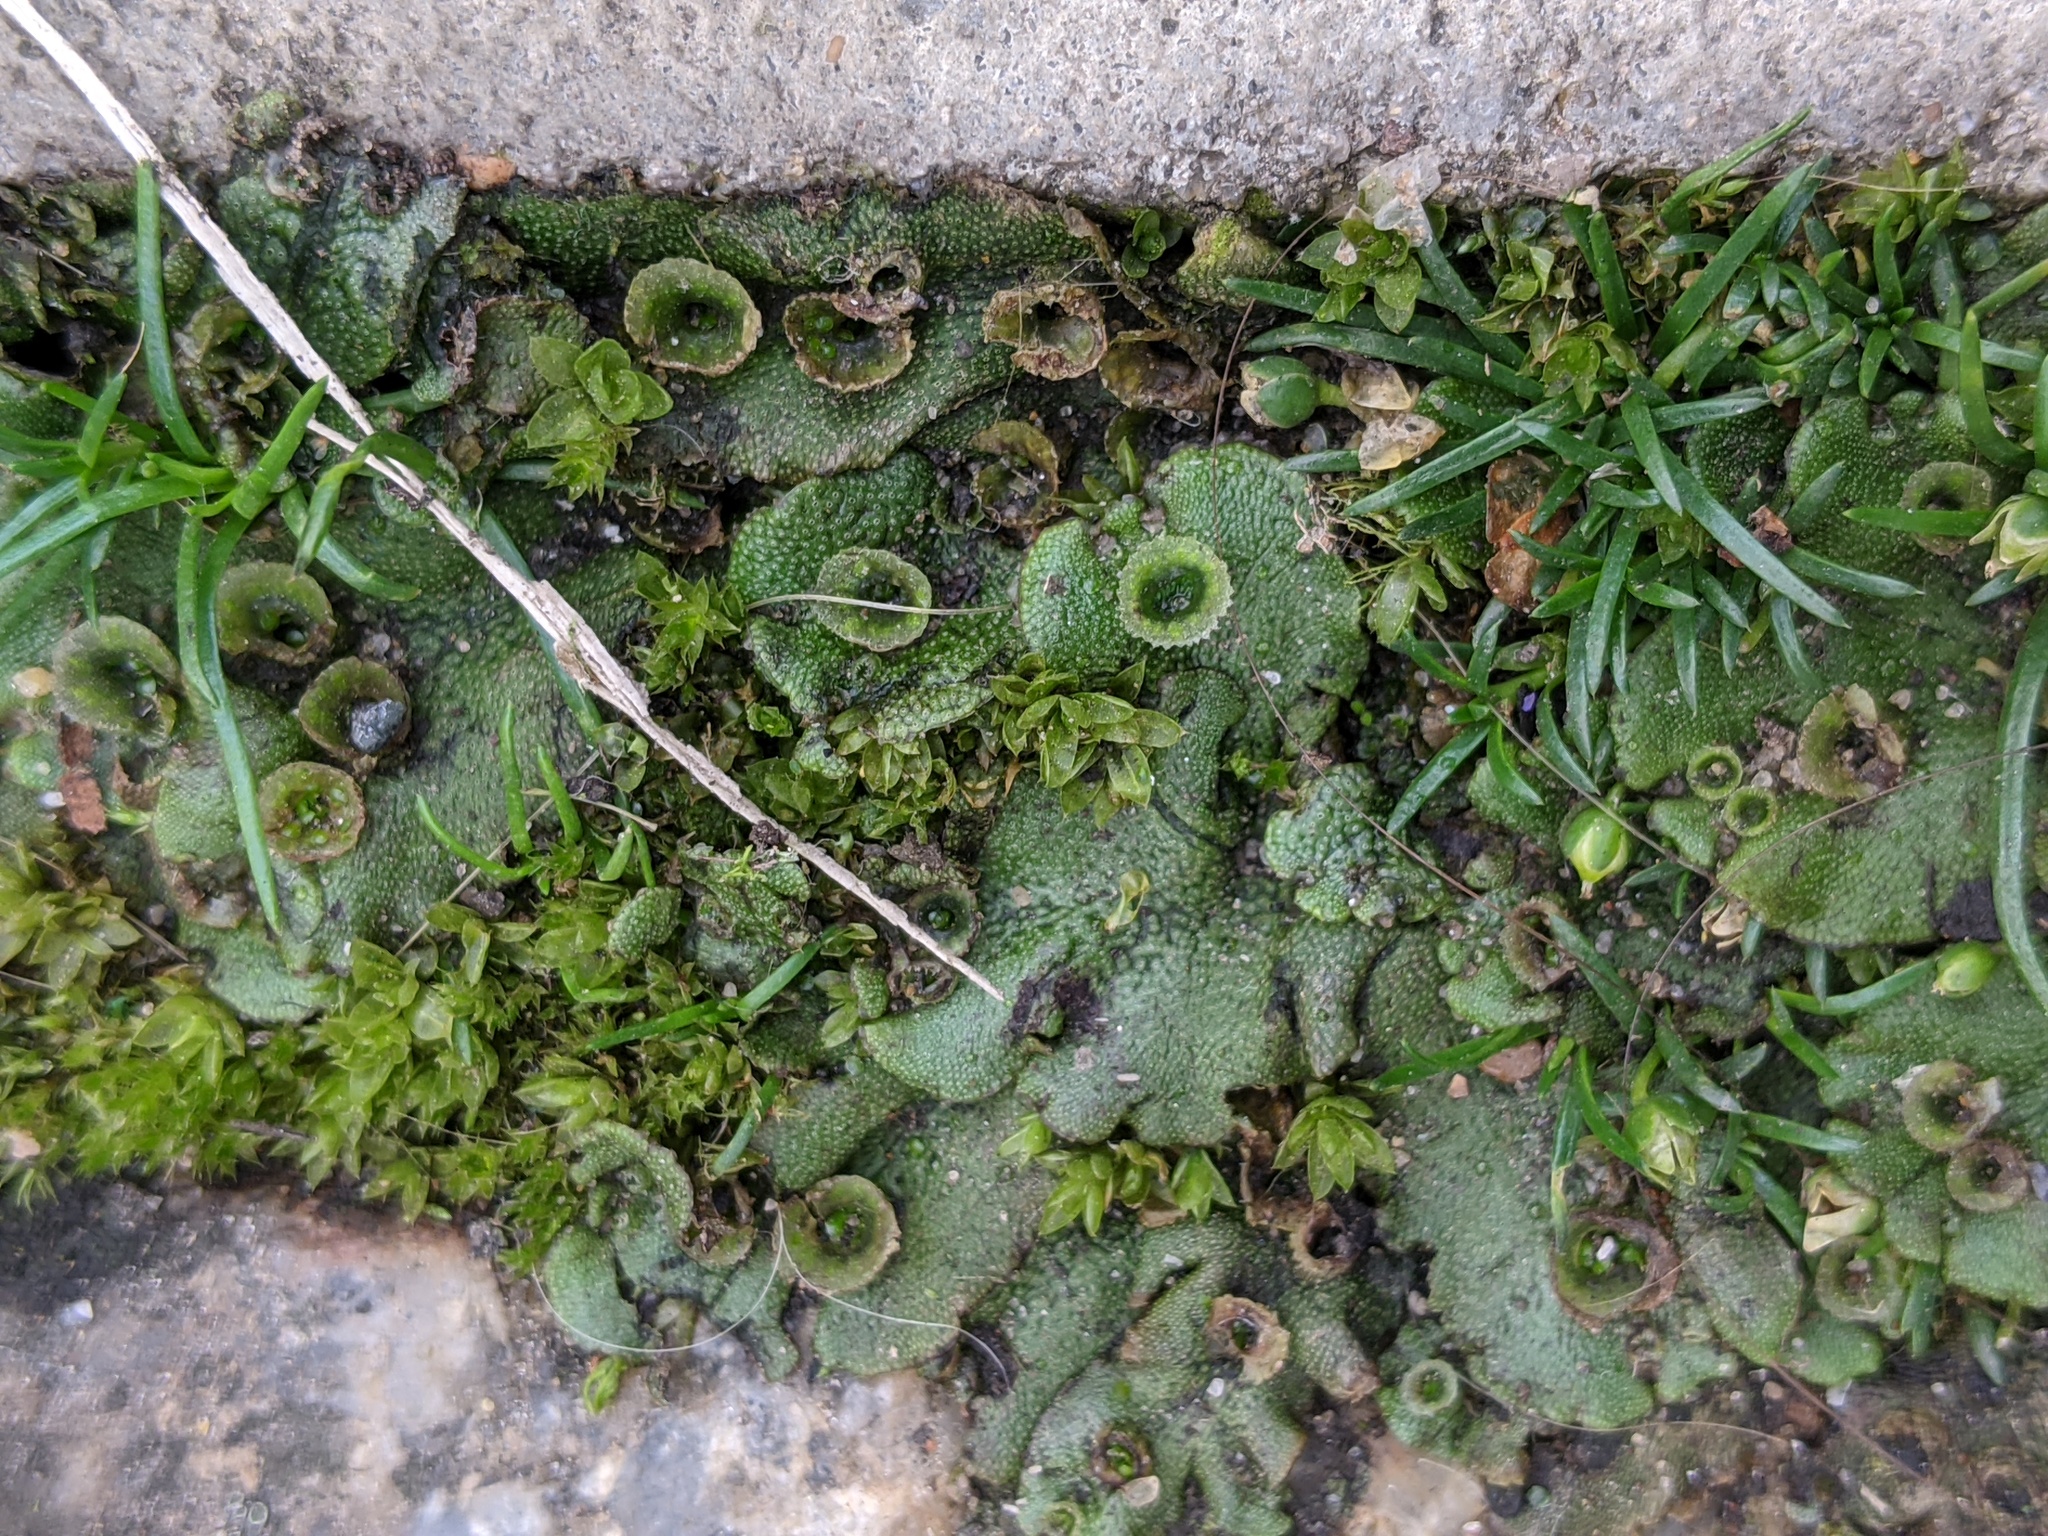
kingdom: Plantae
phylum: Marchantiophyta
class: Marchantiopsida
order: Marchantiales
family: Marchantiaceae
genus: Marchantia
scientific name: Marchantia polymorpha
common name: Common liverwort
